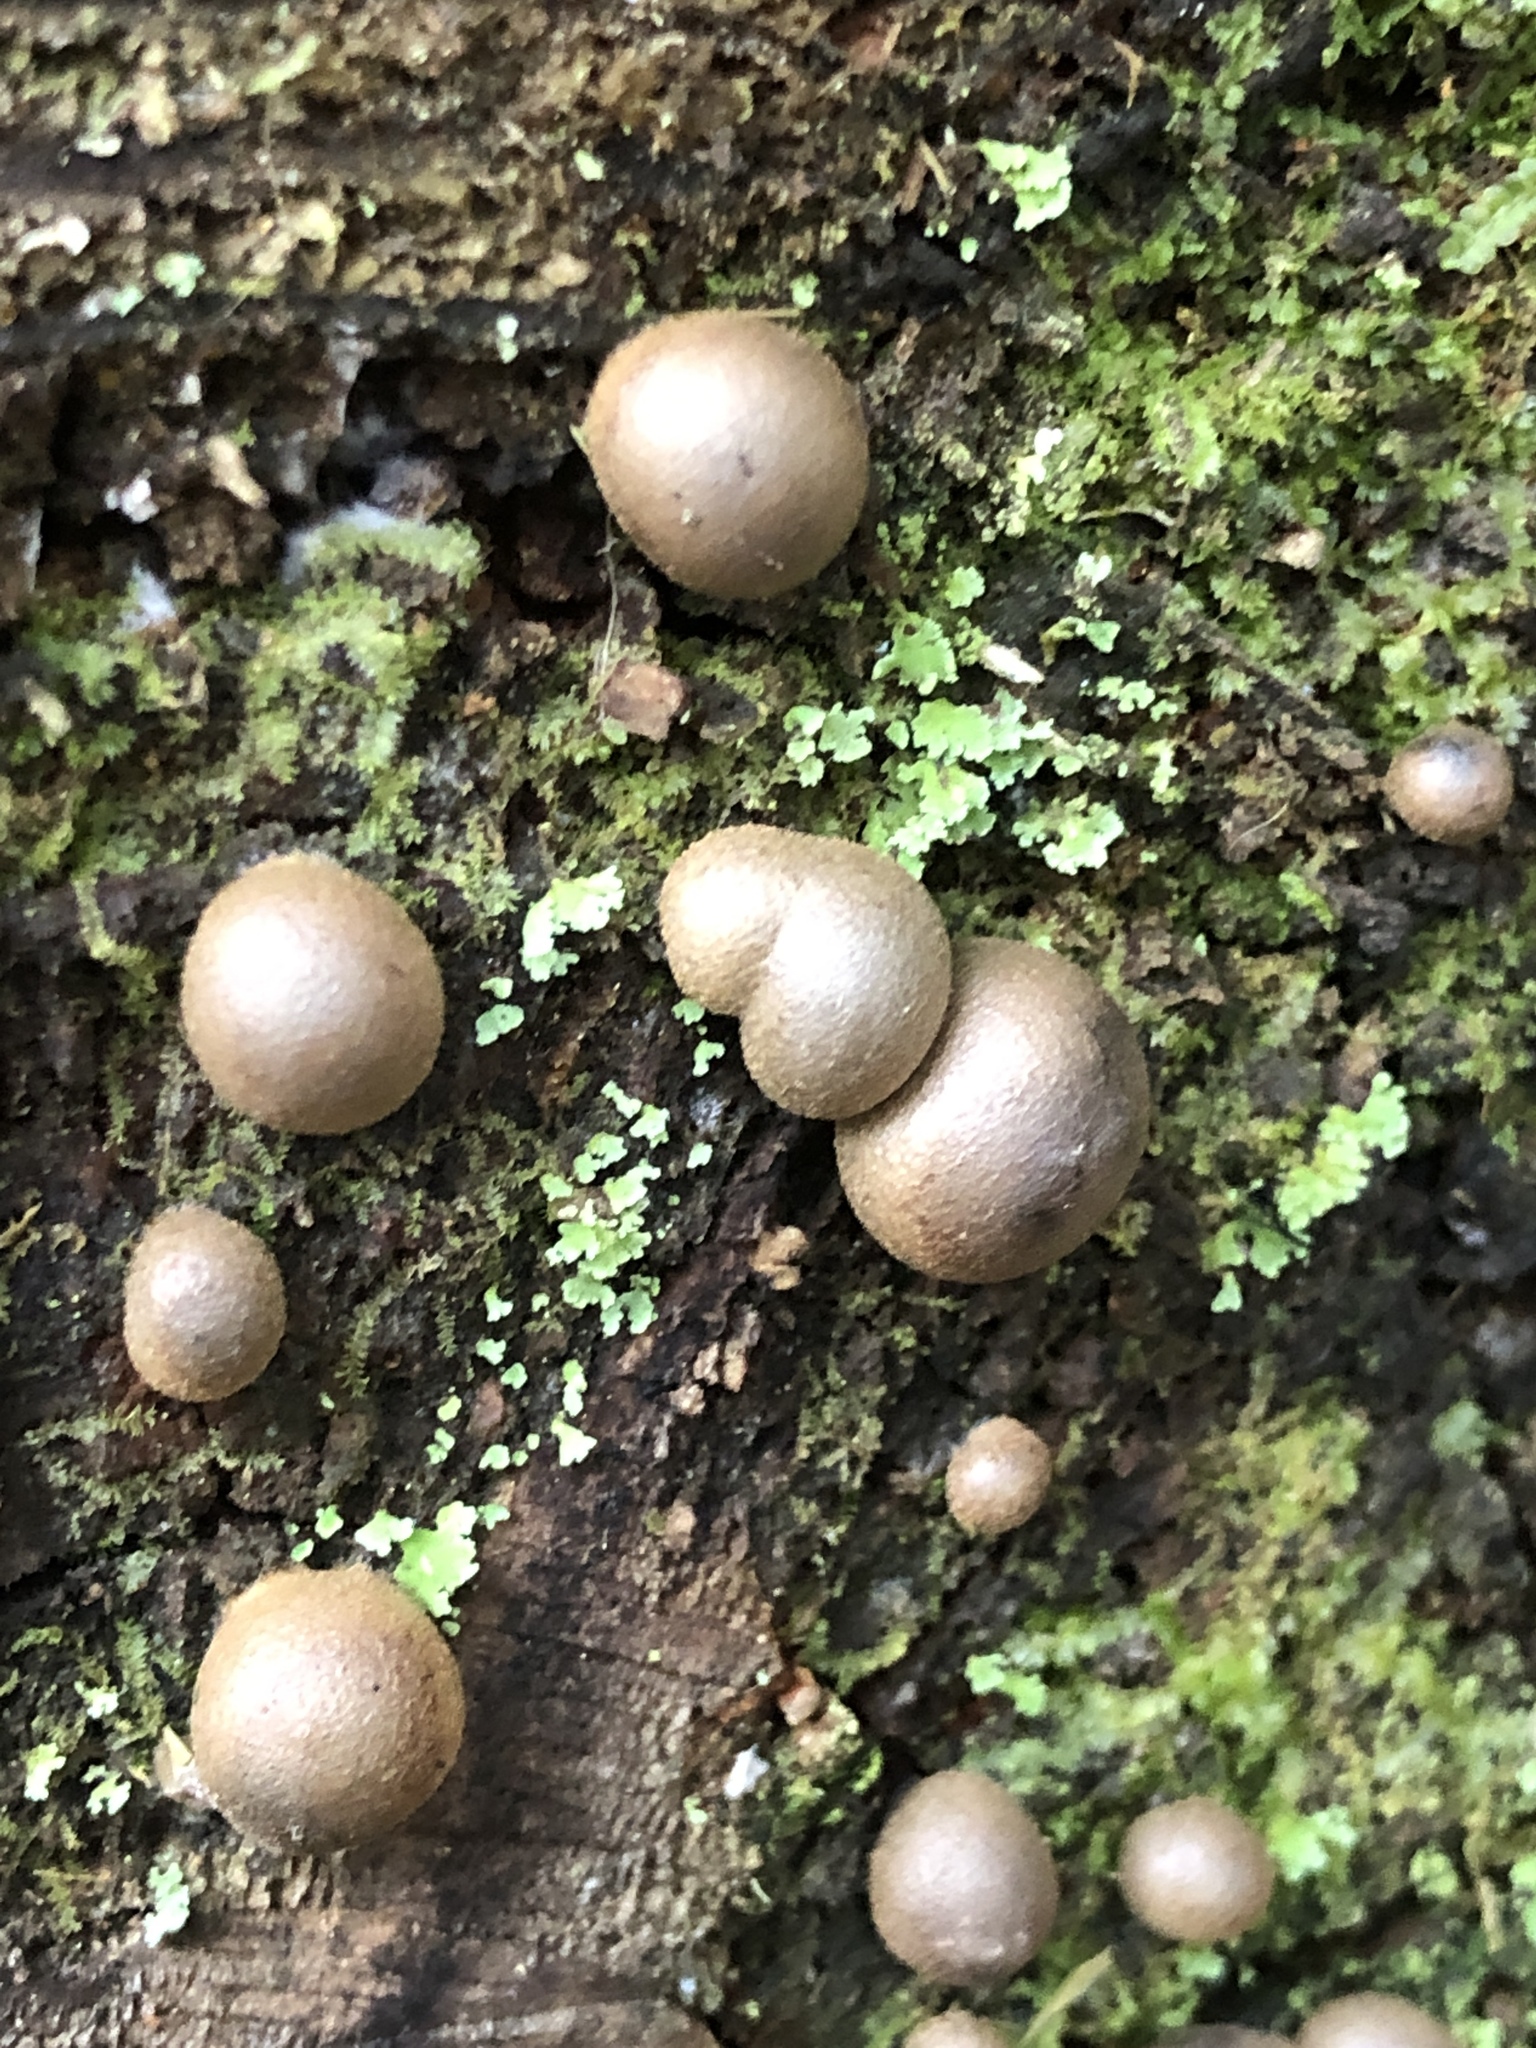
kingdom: Protozoa
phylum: Mycetozoa
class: Myxomycetes
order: Cribrariales
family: Tubiferaceae
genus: Lycogala
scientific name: Lycogala epidendrum
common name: Wolf's milk
